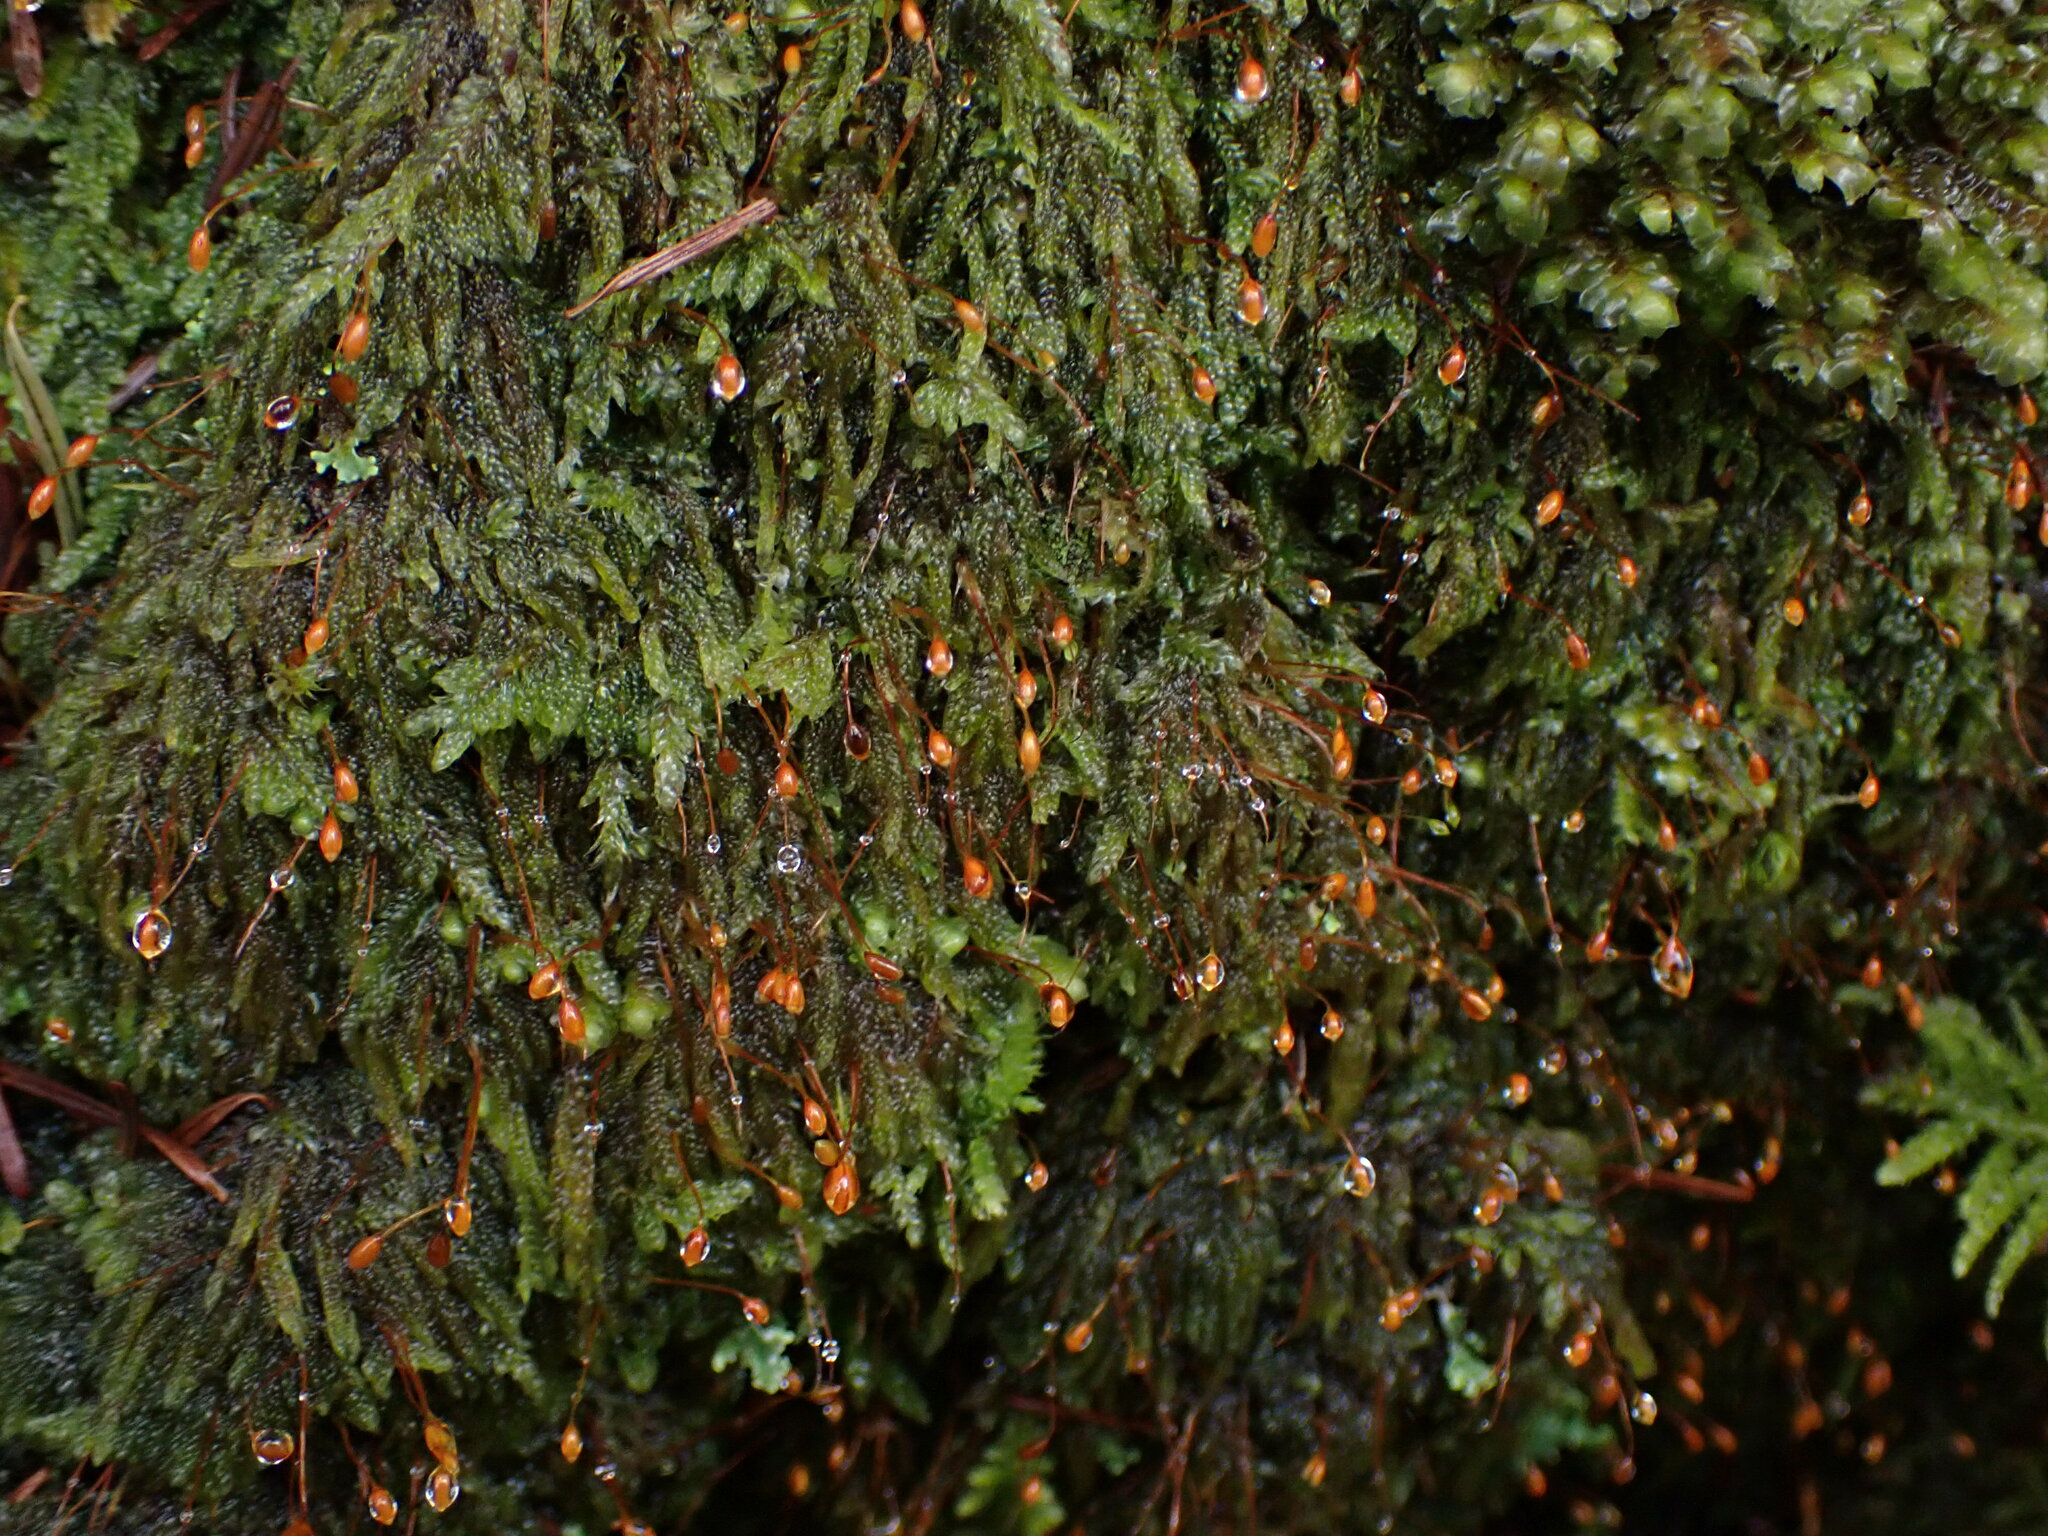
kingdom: Plantae
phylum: Bryophyta
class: Bryopsida
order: Hypnales
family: Pylaisiadelphaceae
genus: Trochophyllohypnum
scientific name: Trochophyllohypnum circinale
